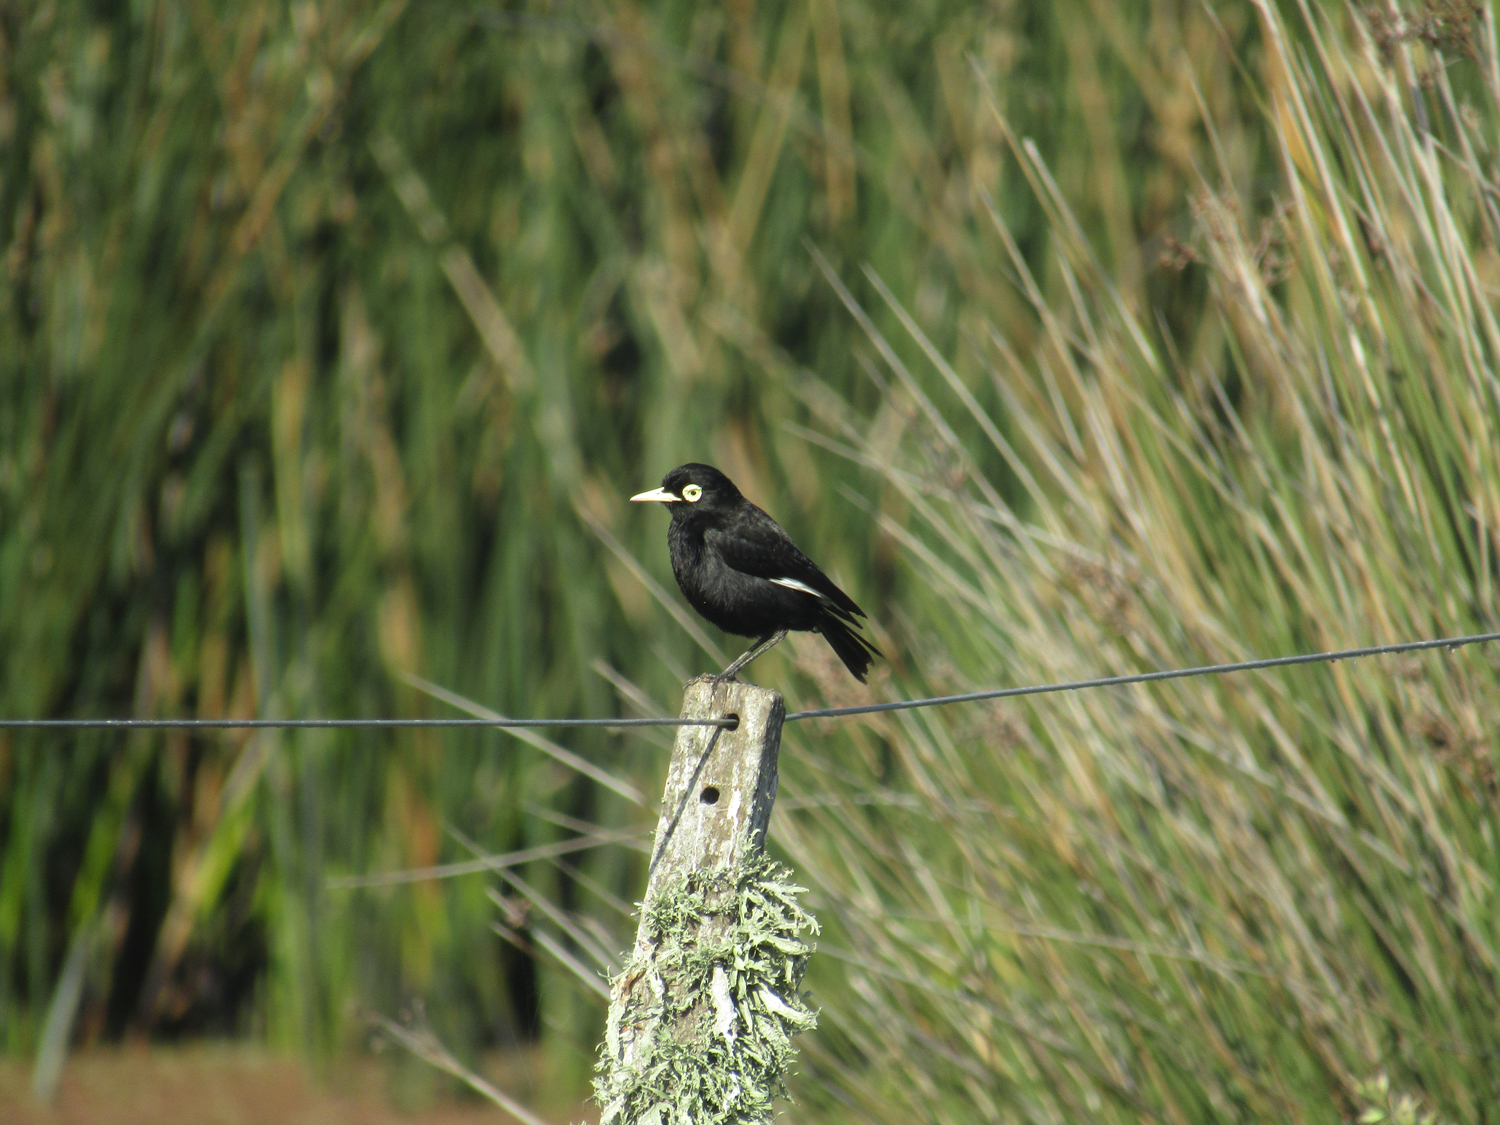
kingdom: Animalia
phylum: Chordata
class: Aves
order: Passeriformes
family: Tyrannidae
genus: Hymenops
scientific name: Hymenops perspicillatus
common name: Spectacled tyrant
